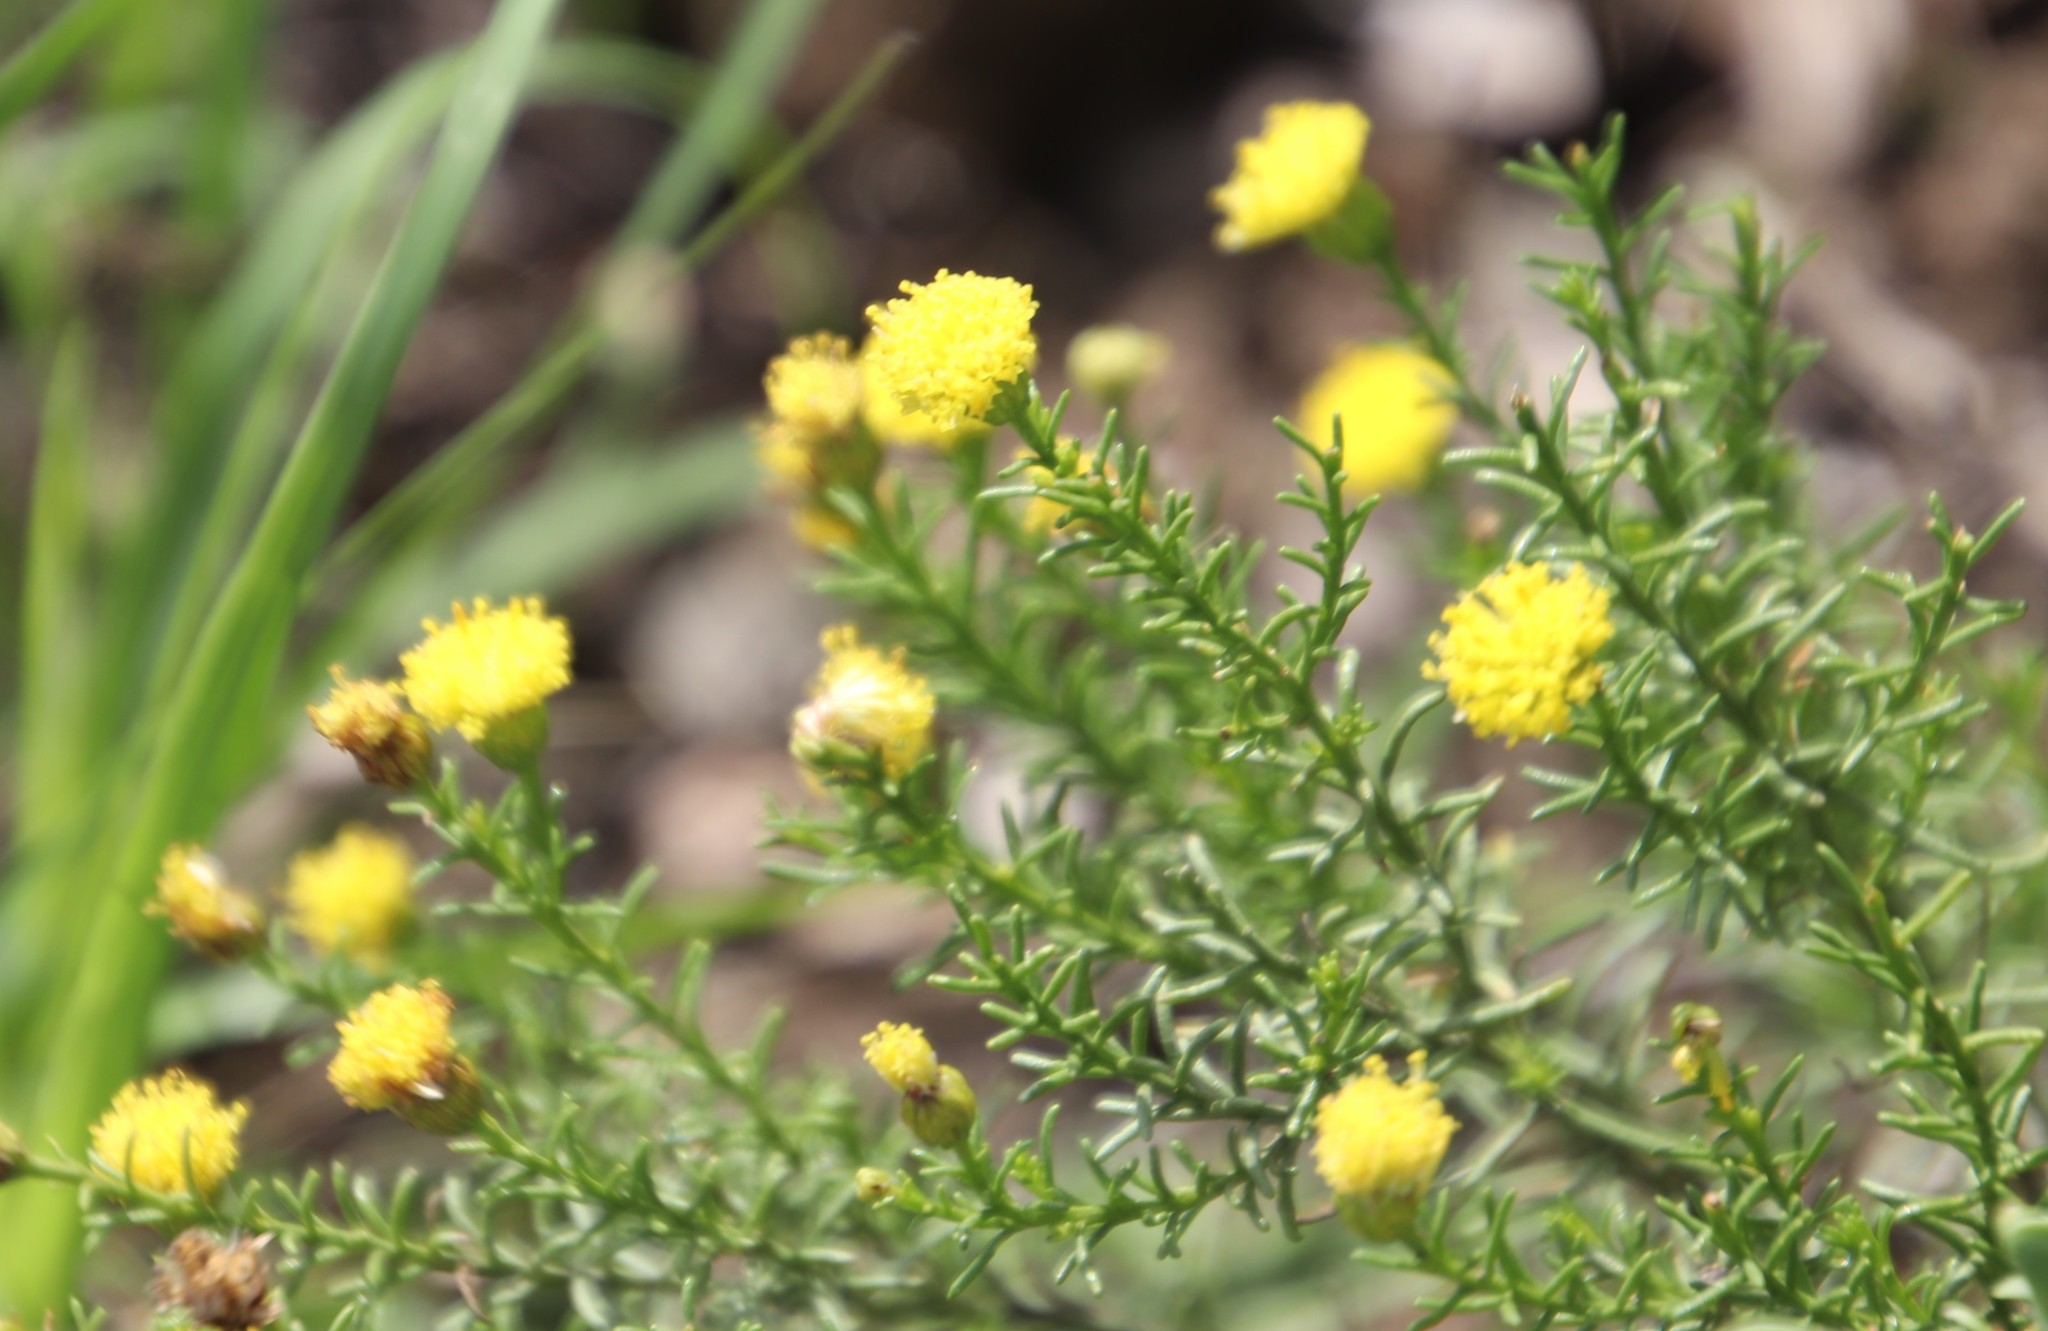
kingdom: Plantae
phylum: Tracheophyta
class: Magnoliopsida
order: Asterales
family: Asteraceae
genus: Chrysocoma
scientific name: Chrysocoma ciliata
